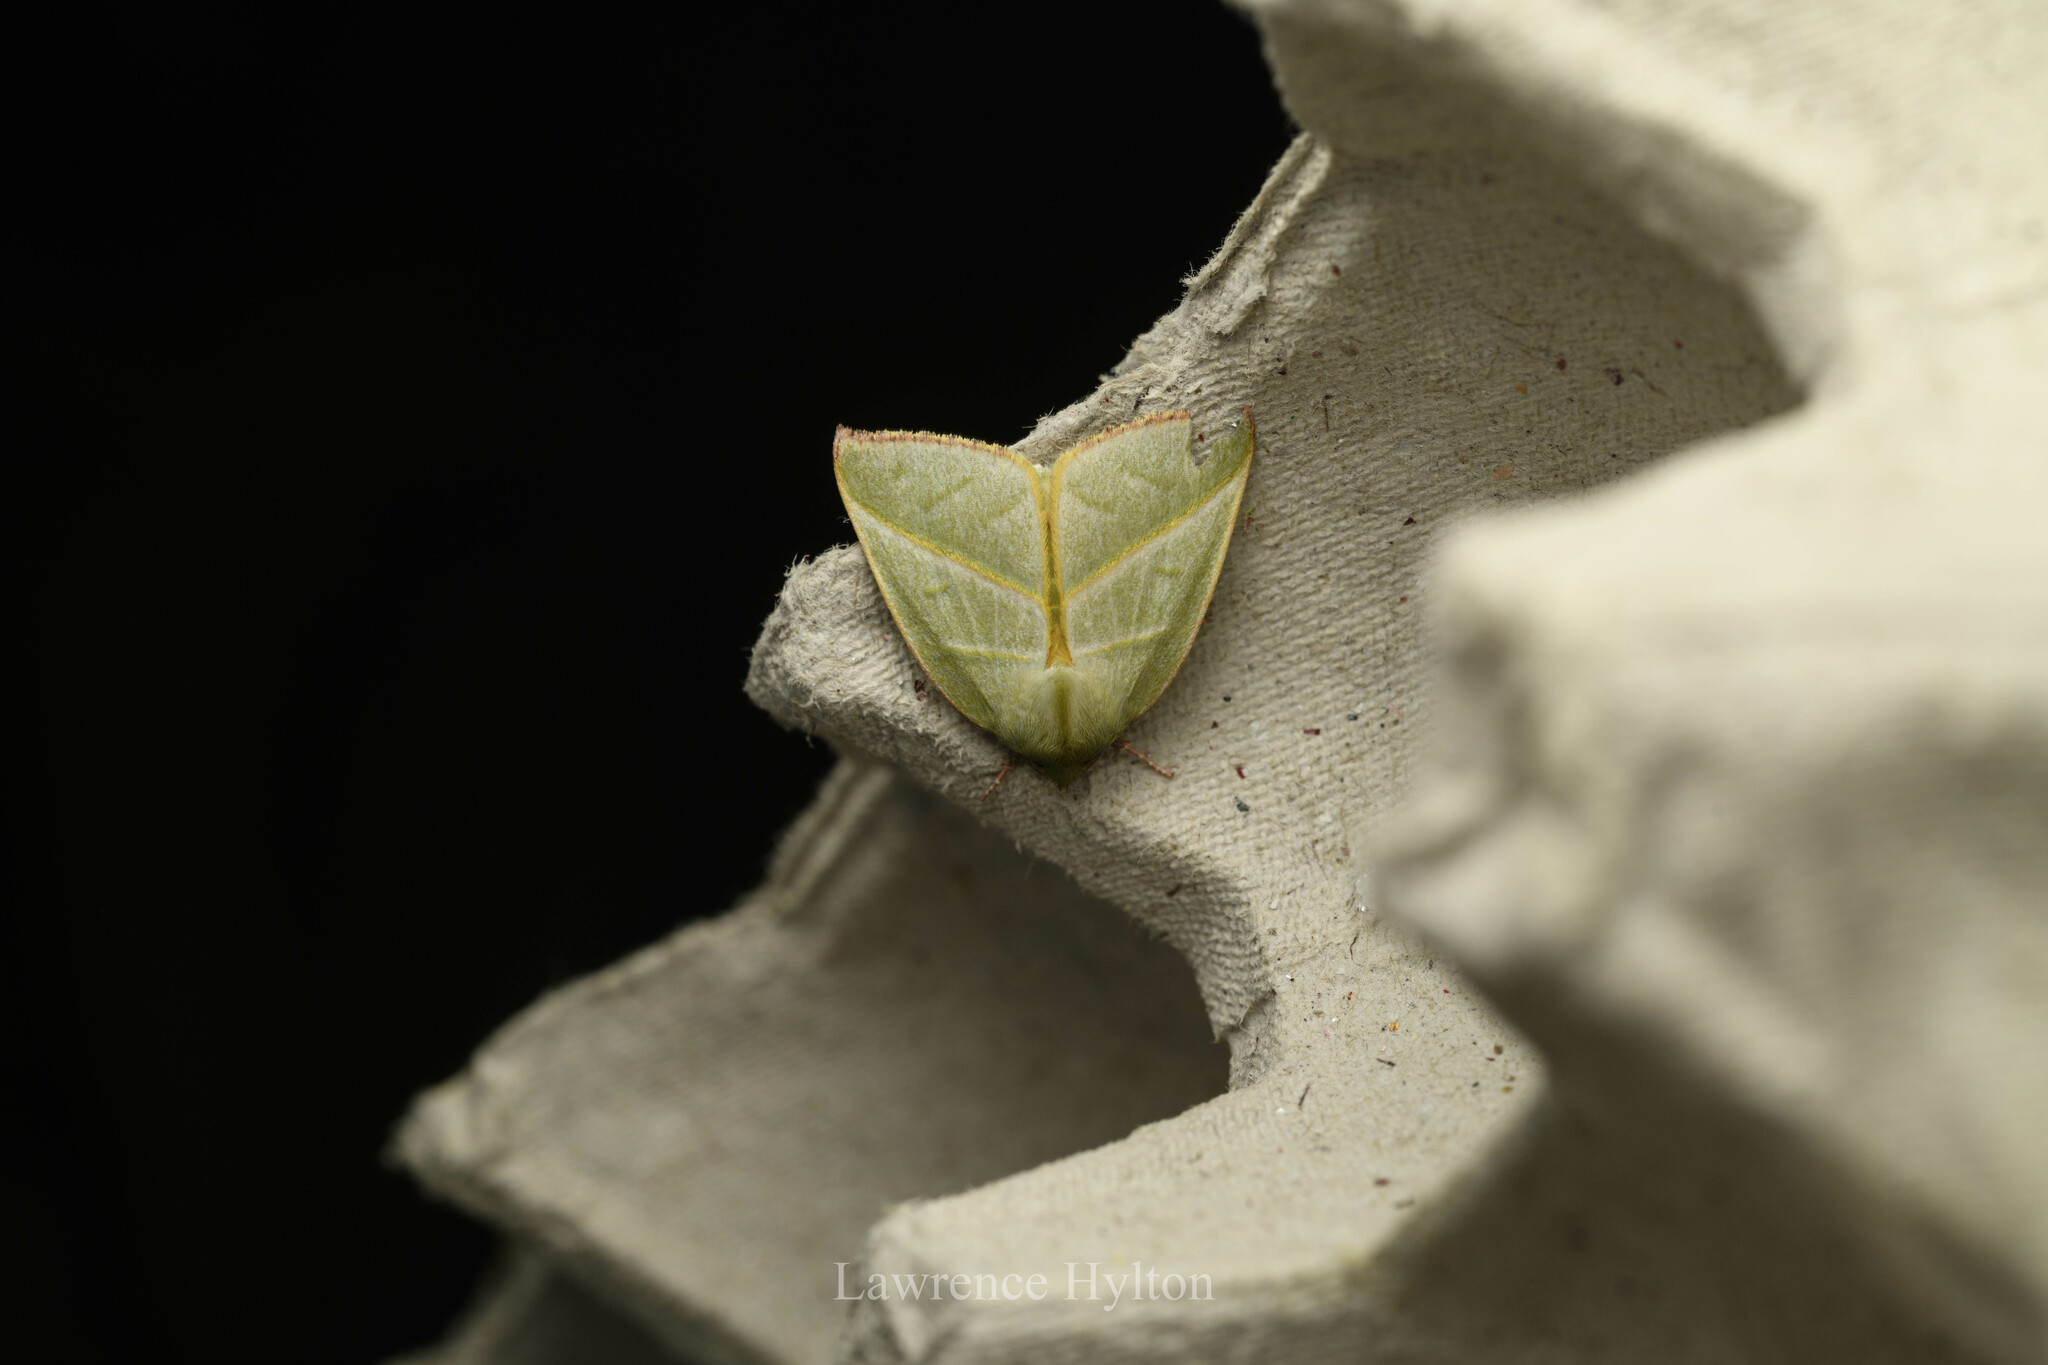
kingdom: Animalia
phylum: Arthropoda
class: Insecta
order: Lepidoptera
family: Nolidae
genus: Hylophilodes
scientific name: Hylophilodes tsukusensis
